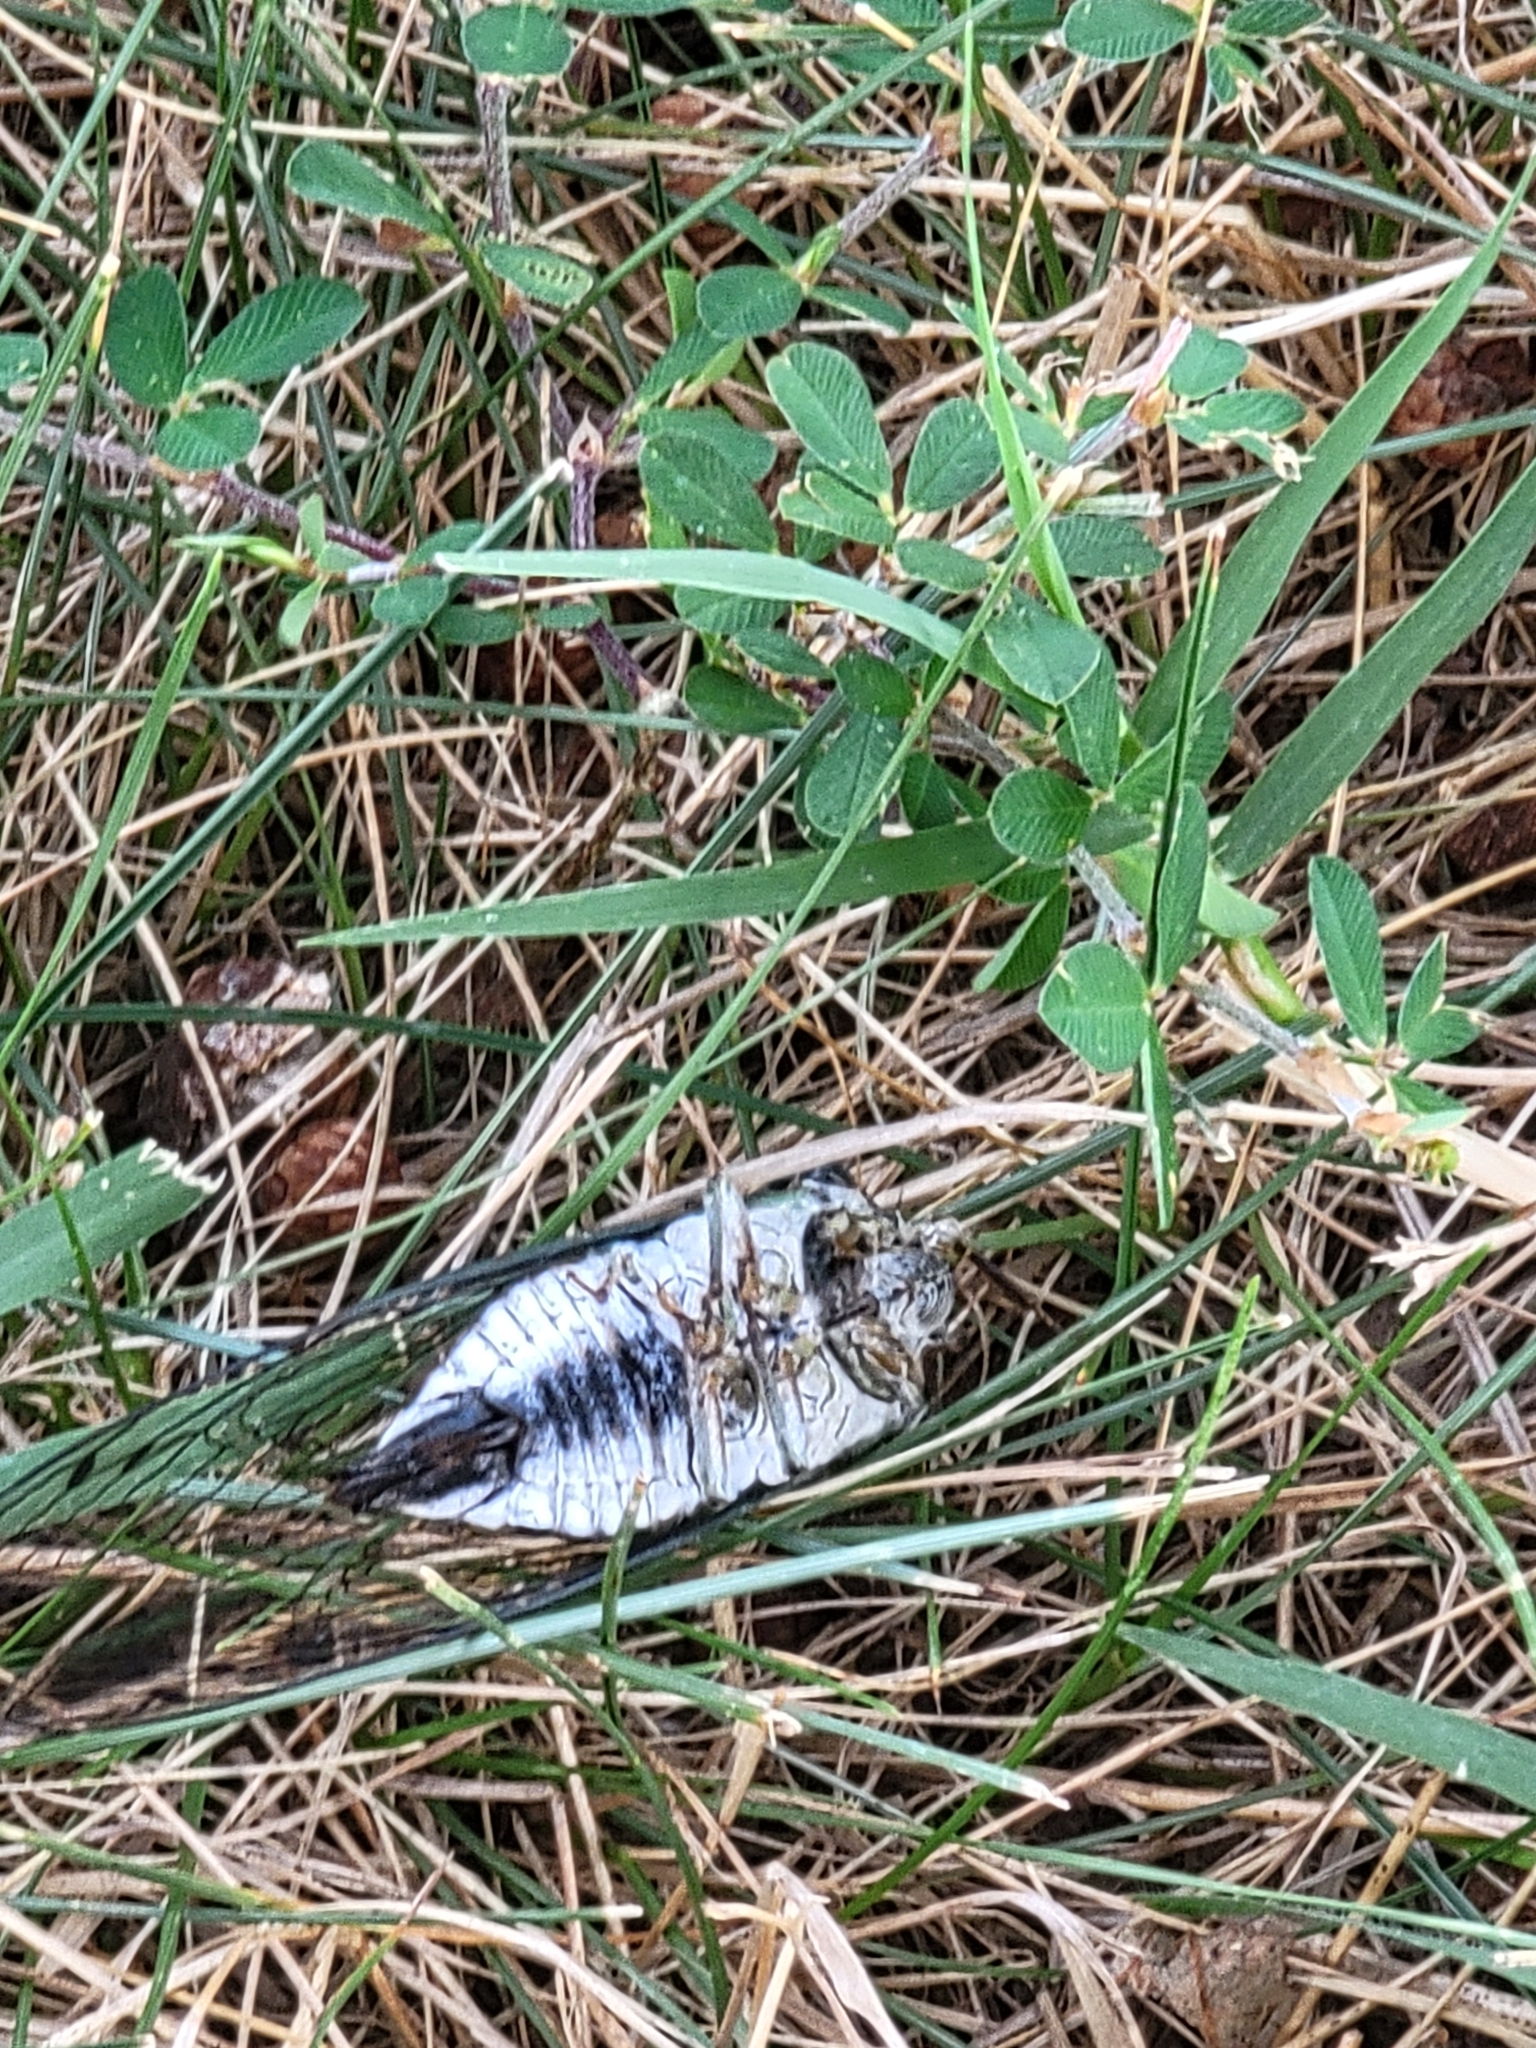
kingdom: Animalia
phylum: Arthropoda
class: Insecta
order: Hemiptera
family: Cicadidae
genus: Diceroprocta
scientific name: Diceroprocta grossa
